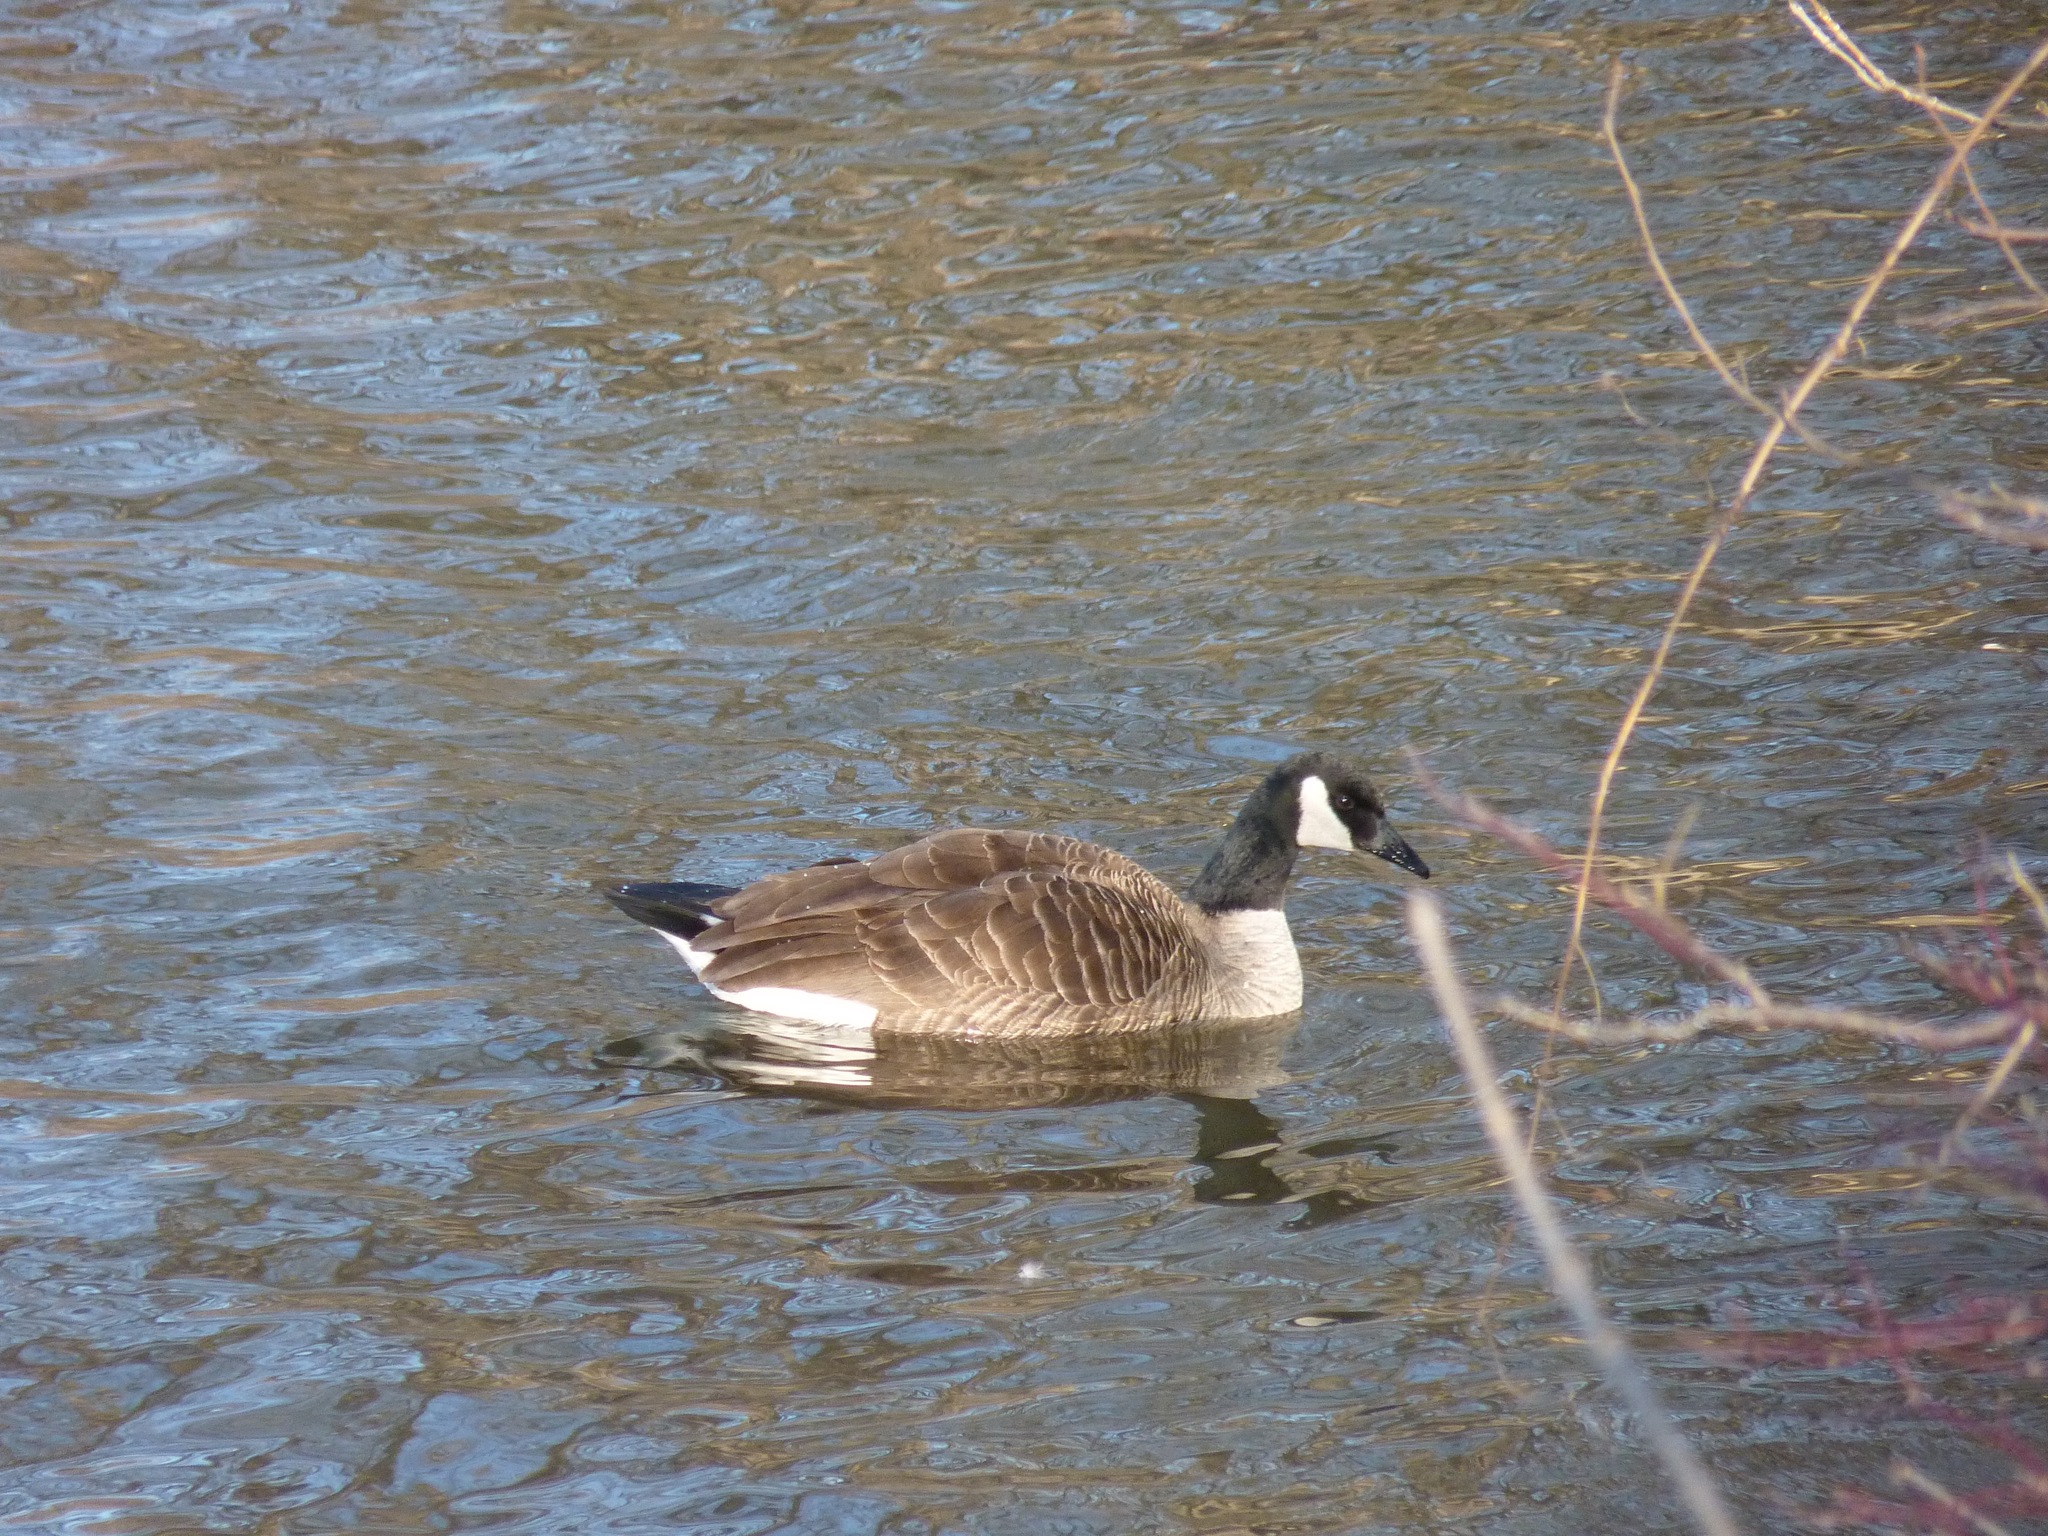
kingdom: Animalia
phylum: Chordata
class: Aves
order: Anseriformes
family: Anatidae
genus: Branta
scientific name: Branta canadensis
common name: Canada goose
